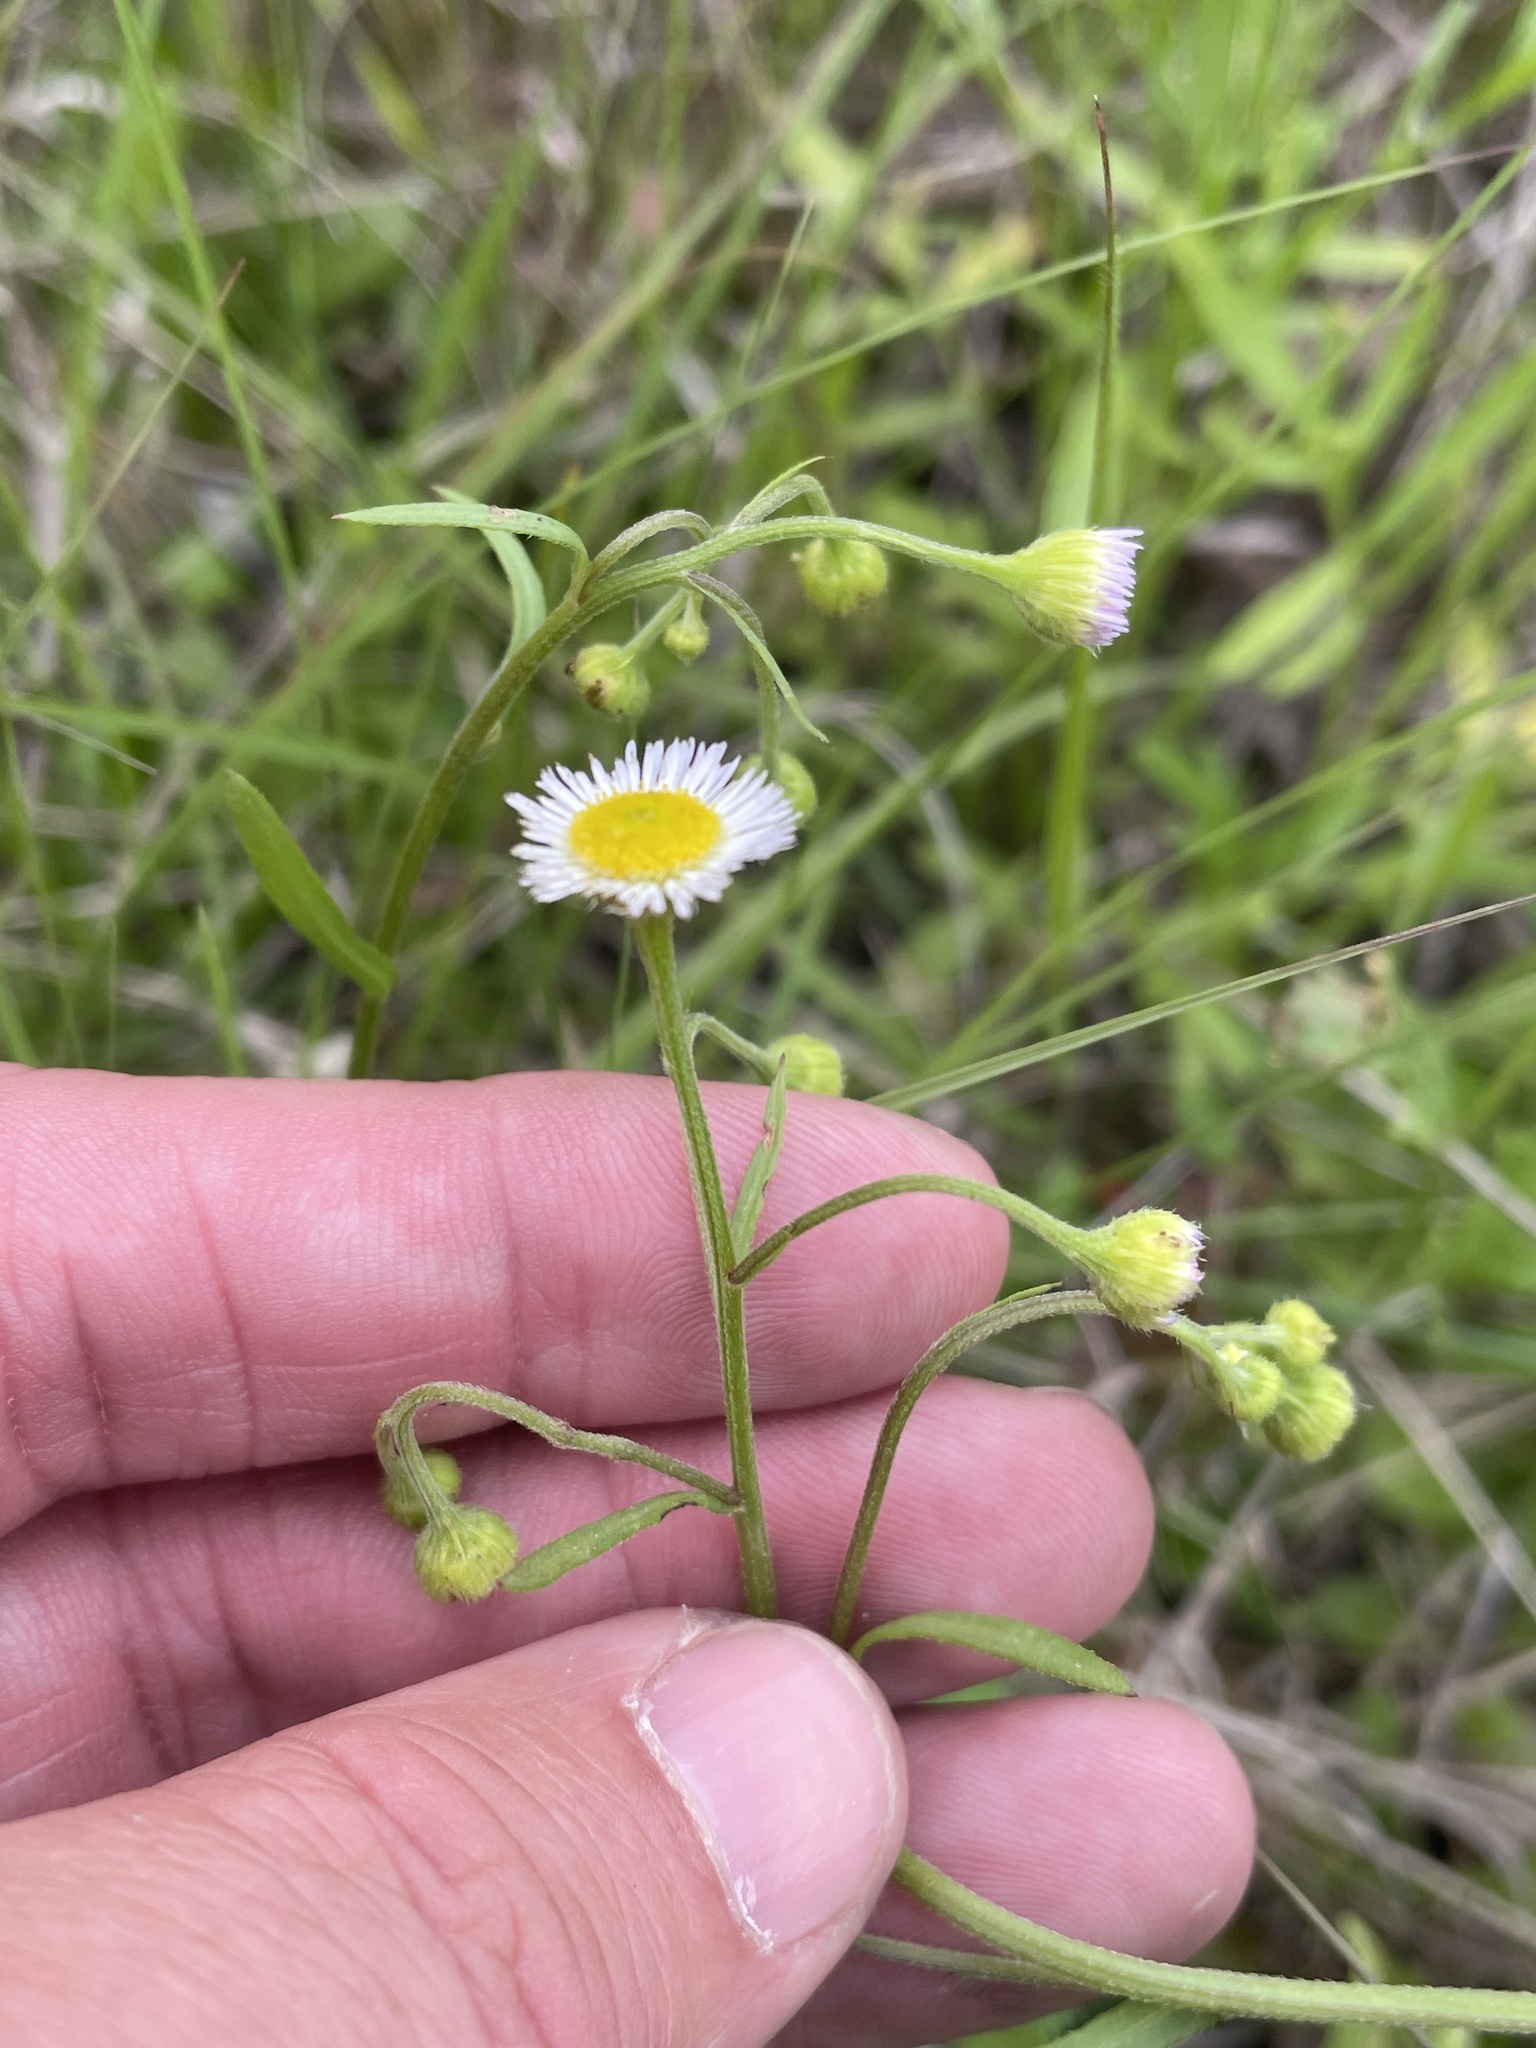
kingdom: Plantae
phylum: Tracheophyta
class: Magnoliopsida
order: Asterales
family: Asteraceae
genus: Erigeron
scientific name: Erigeron strigosus
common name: Common eastern fleabane
